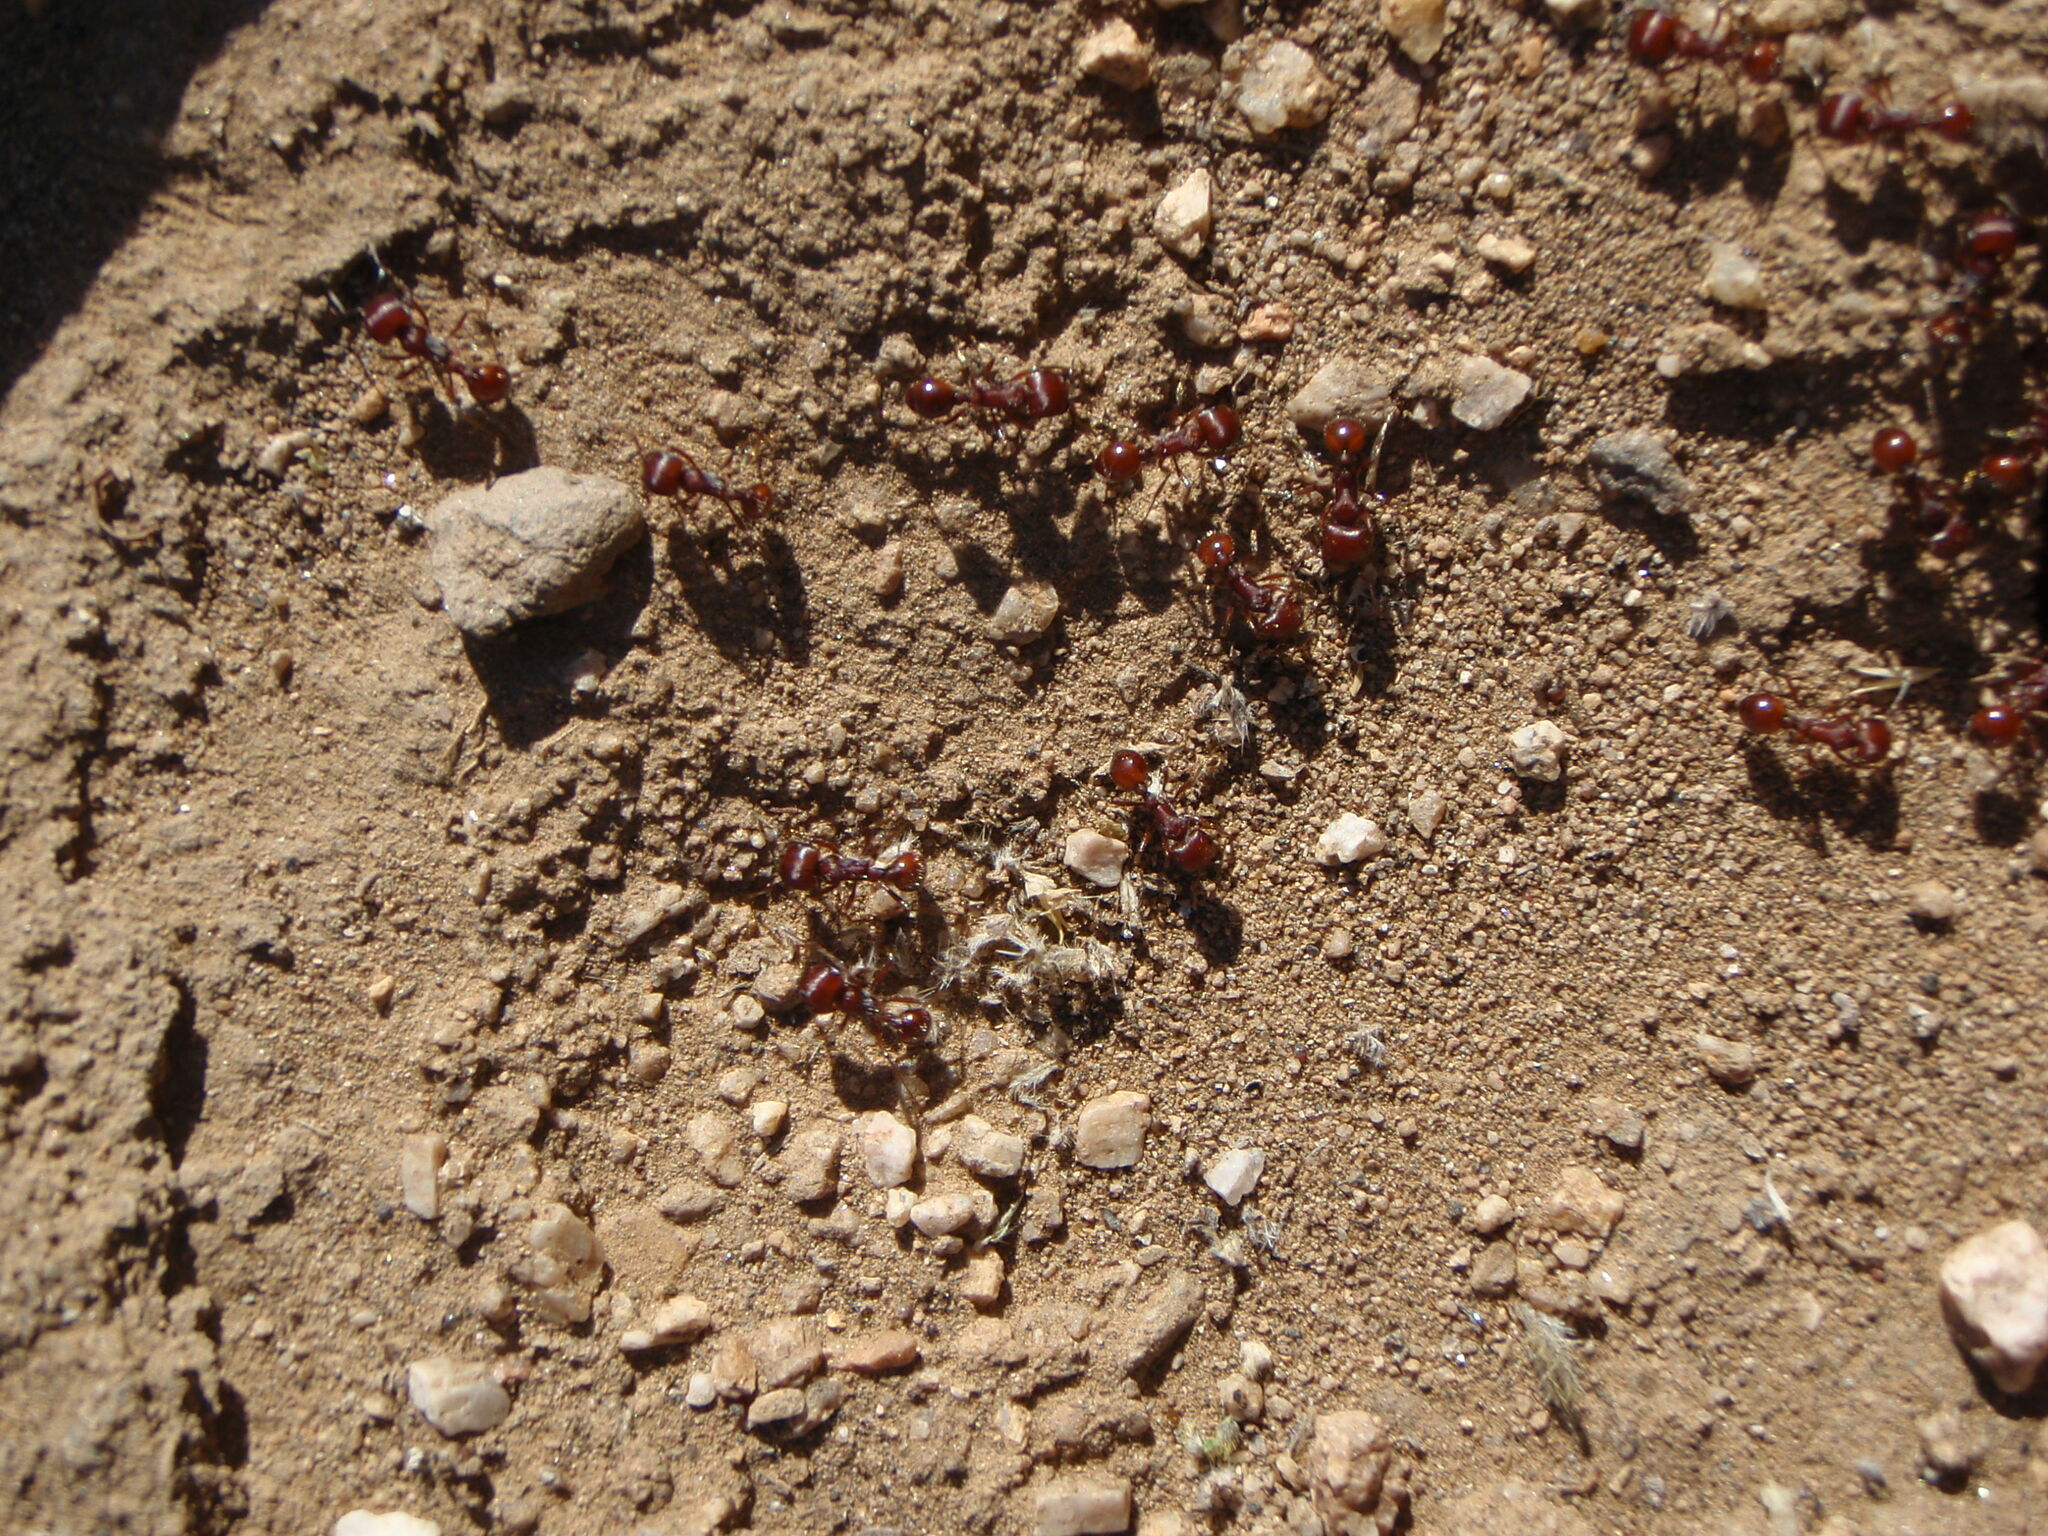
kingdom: Animalia
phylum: Arthropoda
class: Insecta
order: Hymenoptera
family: Formicidae
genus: Pogonomyrmex
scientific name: Pogonomyrmex barbatus
